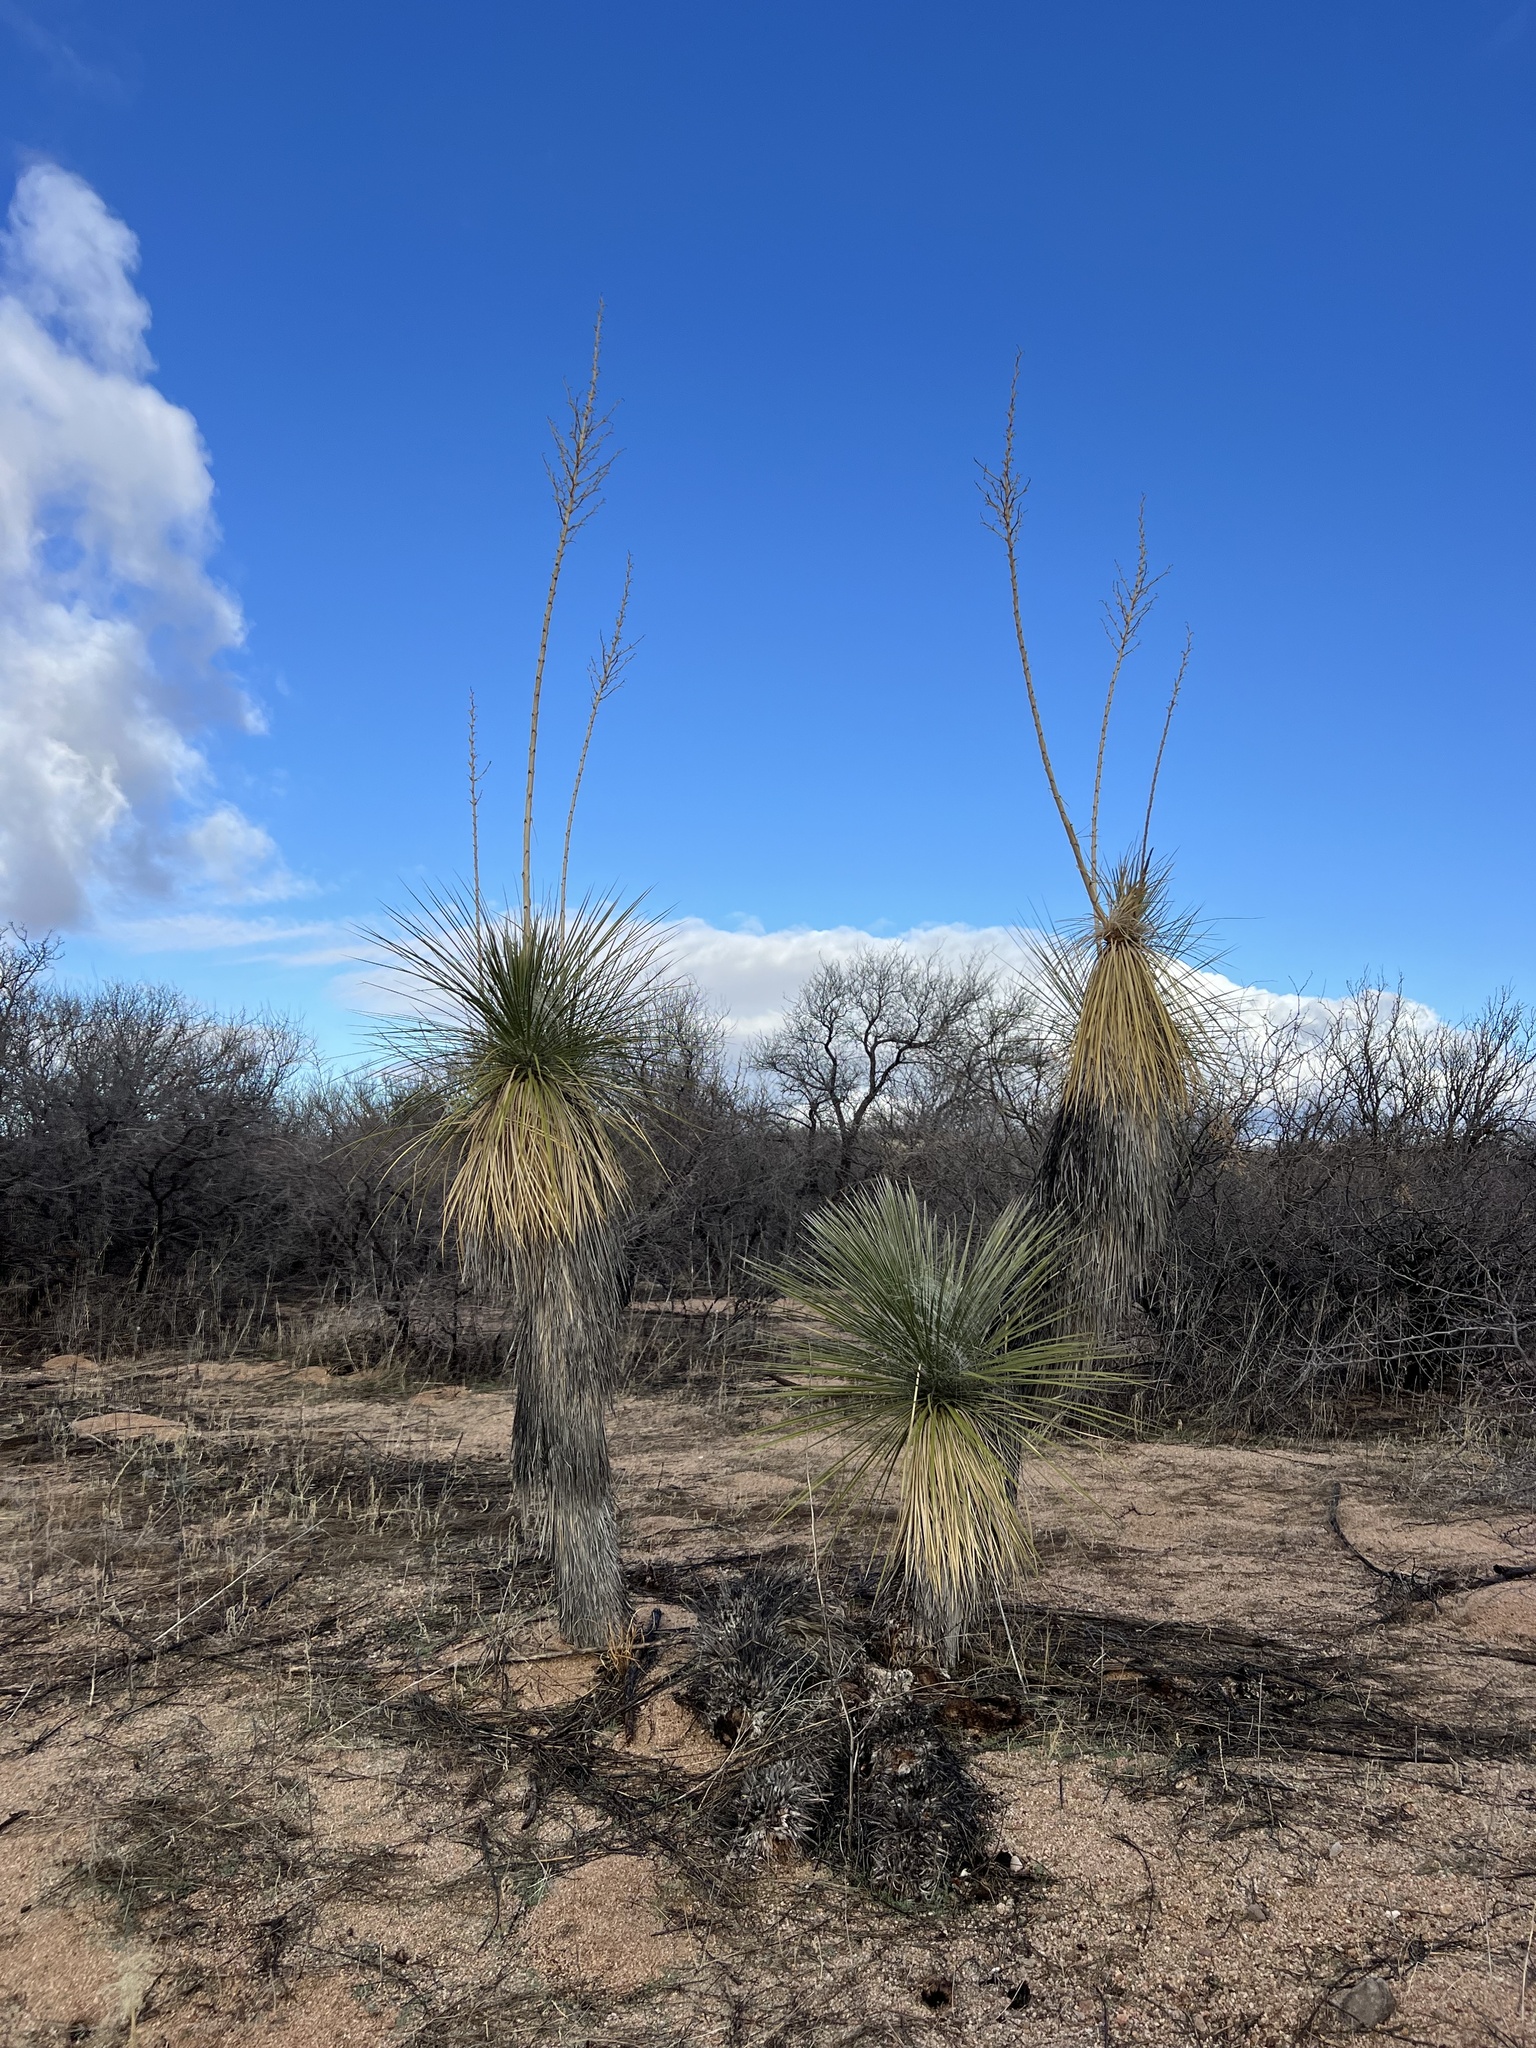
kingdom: Plantae
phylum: Tracheophyta
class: Liliopsida
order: Asparagales
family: Asparagaceae
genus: Yucca
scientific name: Yucca elata
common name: Palmella
